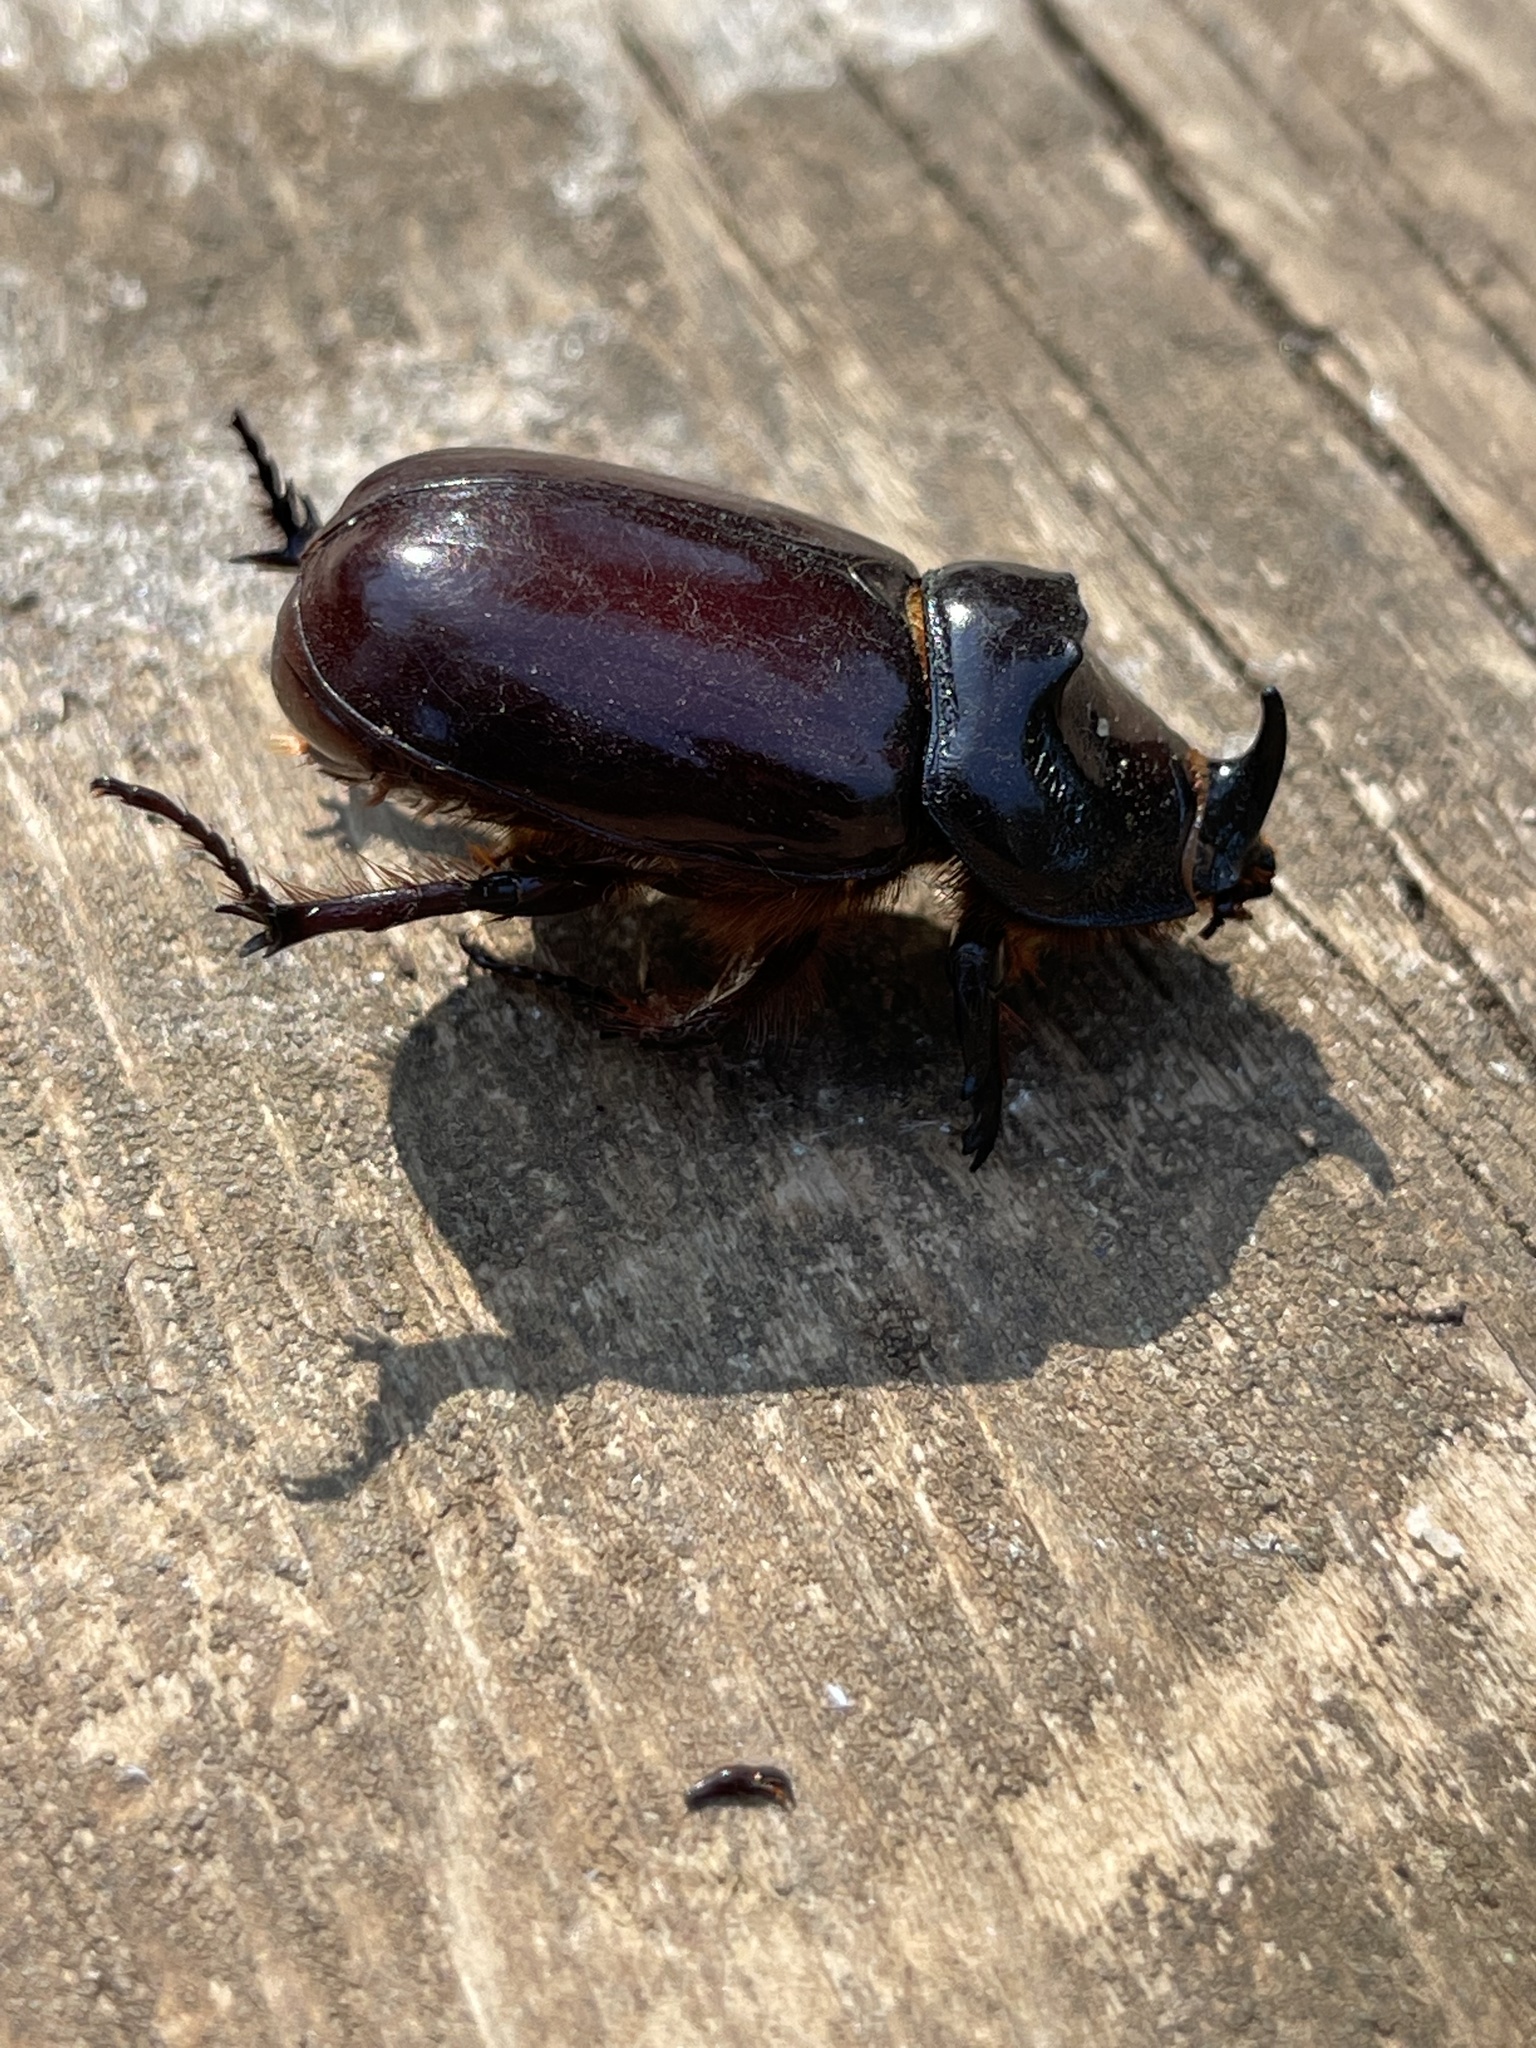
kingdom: Animalia
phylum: Arthropoda
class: Insecta
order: Coleoptera
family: Scarabaeidae
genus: Oryctes
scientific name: Oryctes nasicornis
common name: European rhinoceros beetle
